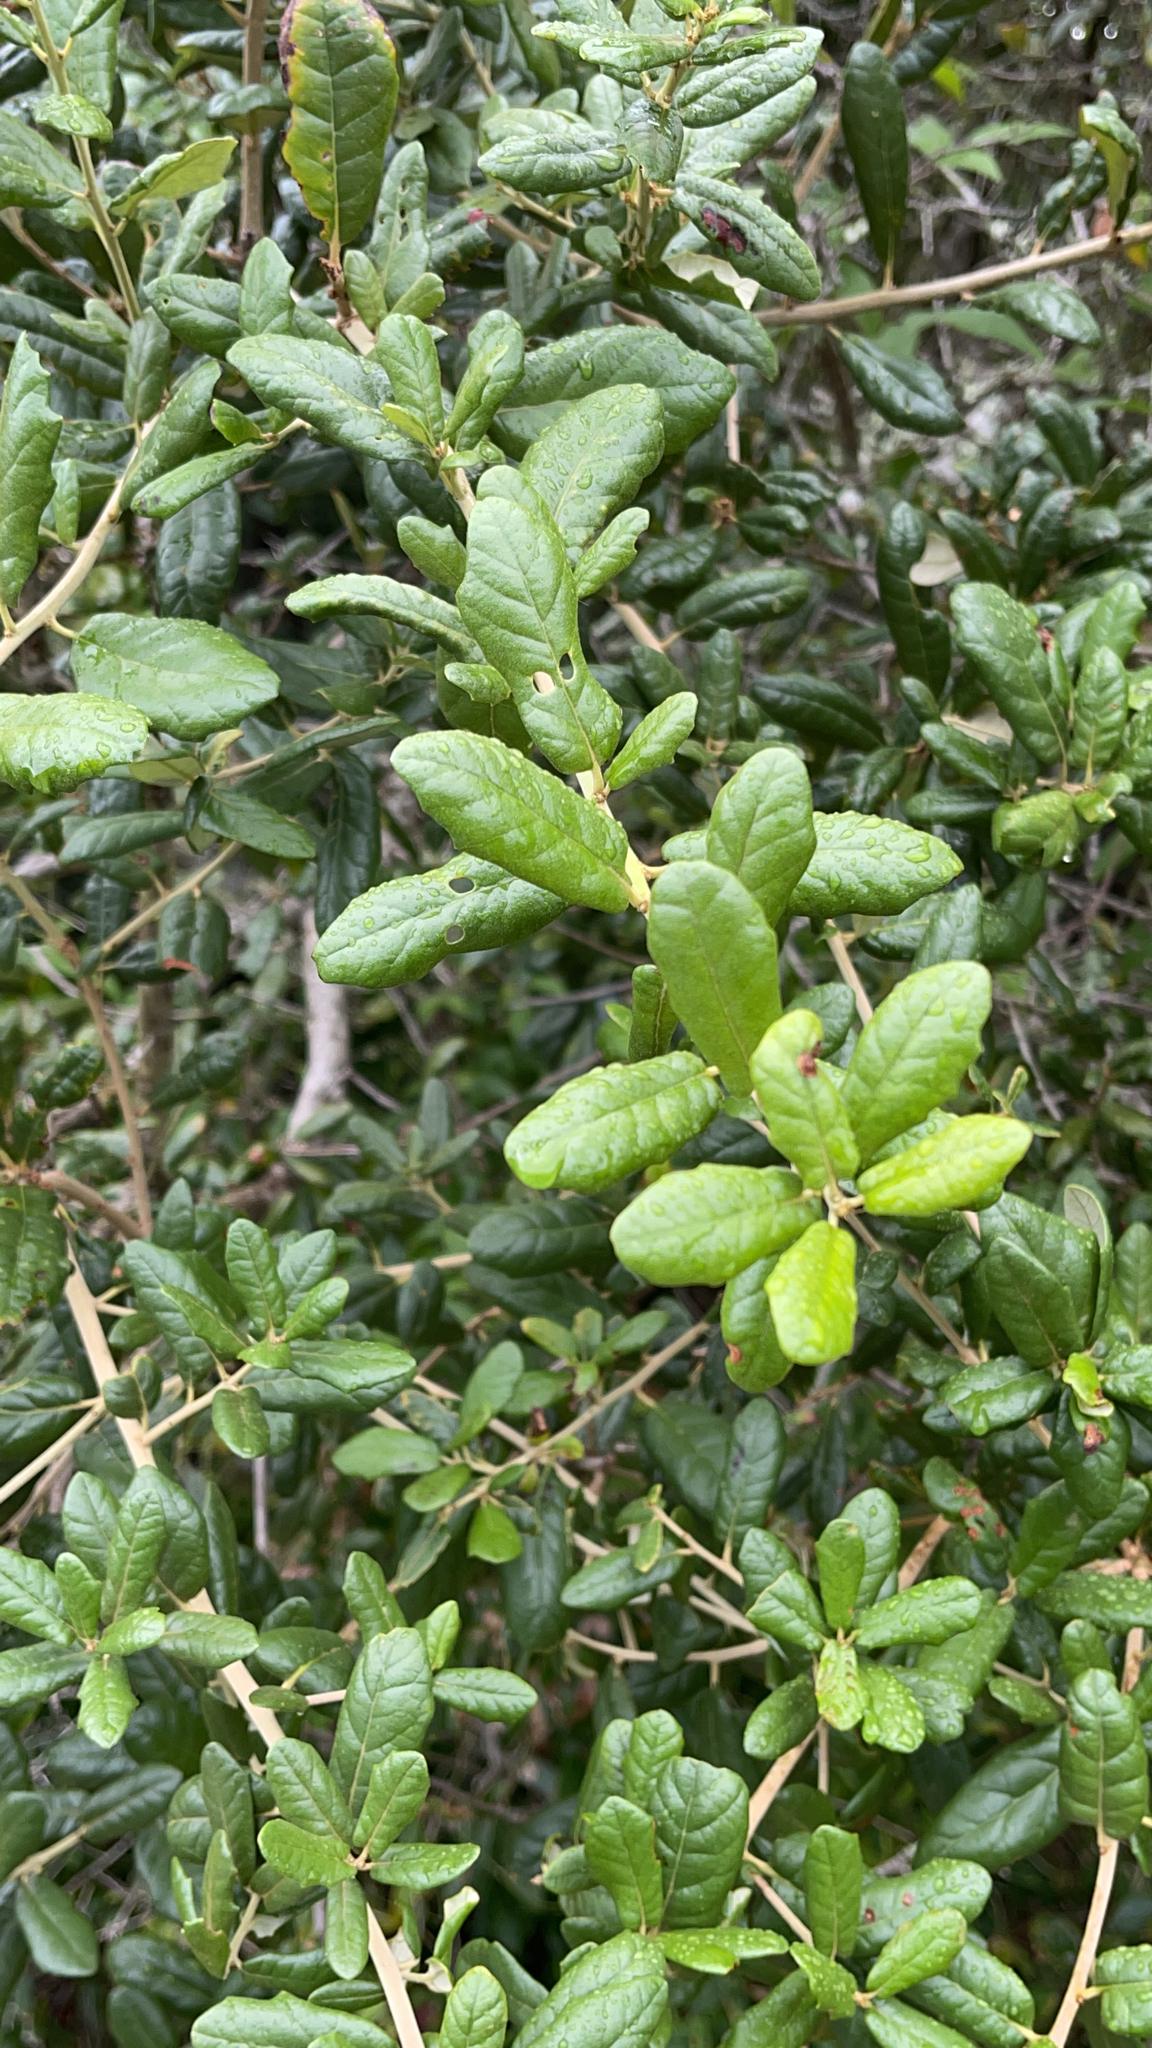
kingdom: Plantae
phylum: Tracheophyta
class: Magnoliopsida
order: Fagales
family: Fagaceae
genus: Quercus
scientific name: Quercus geminata
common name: Sand live oak
